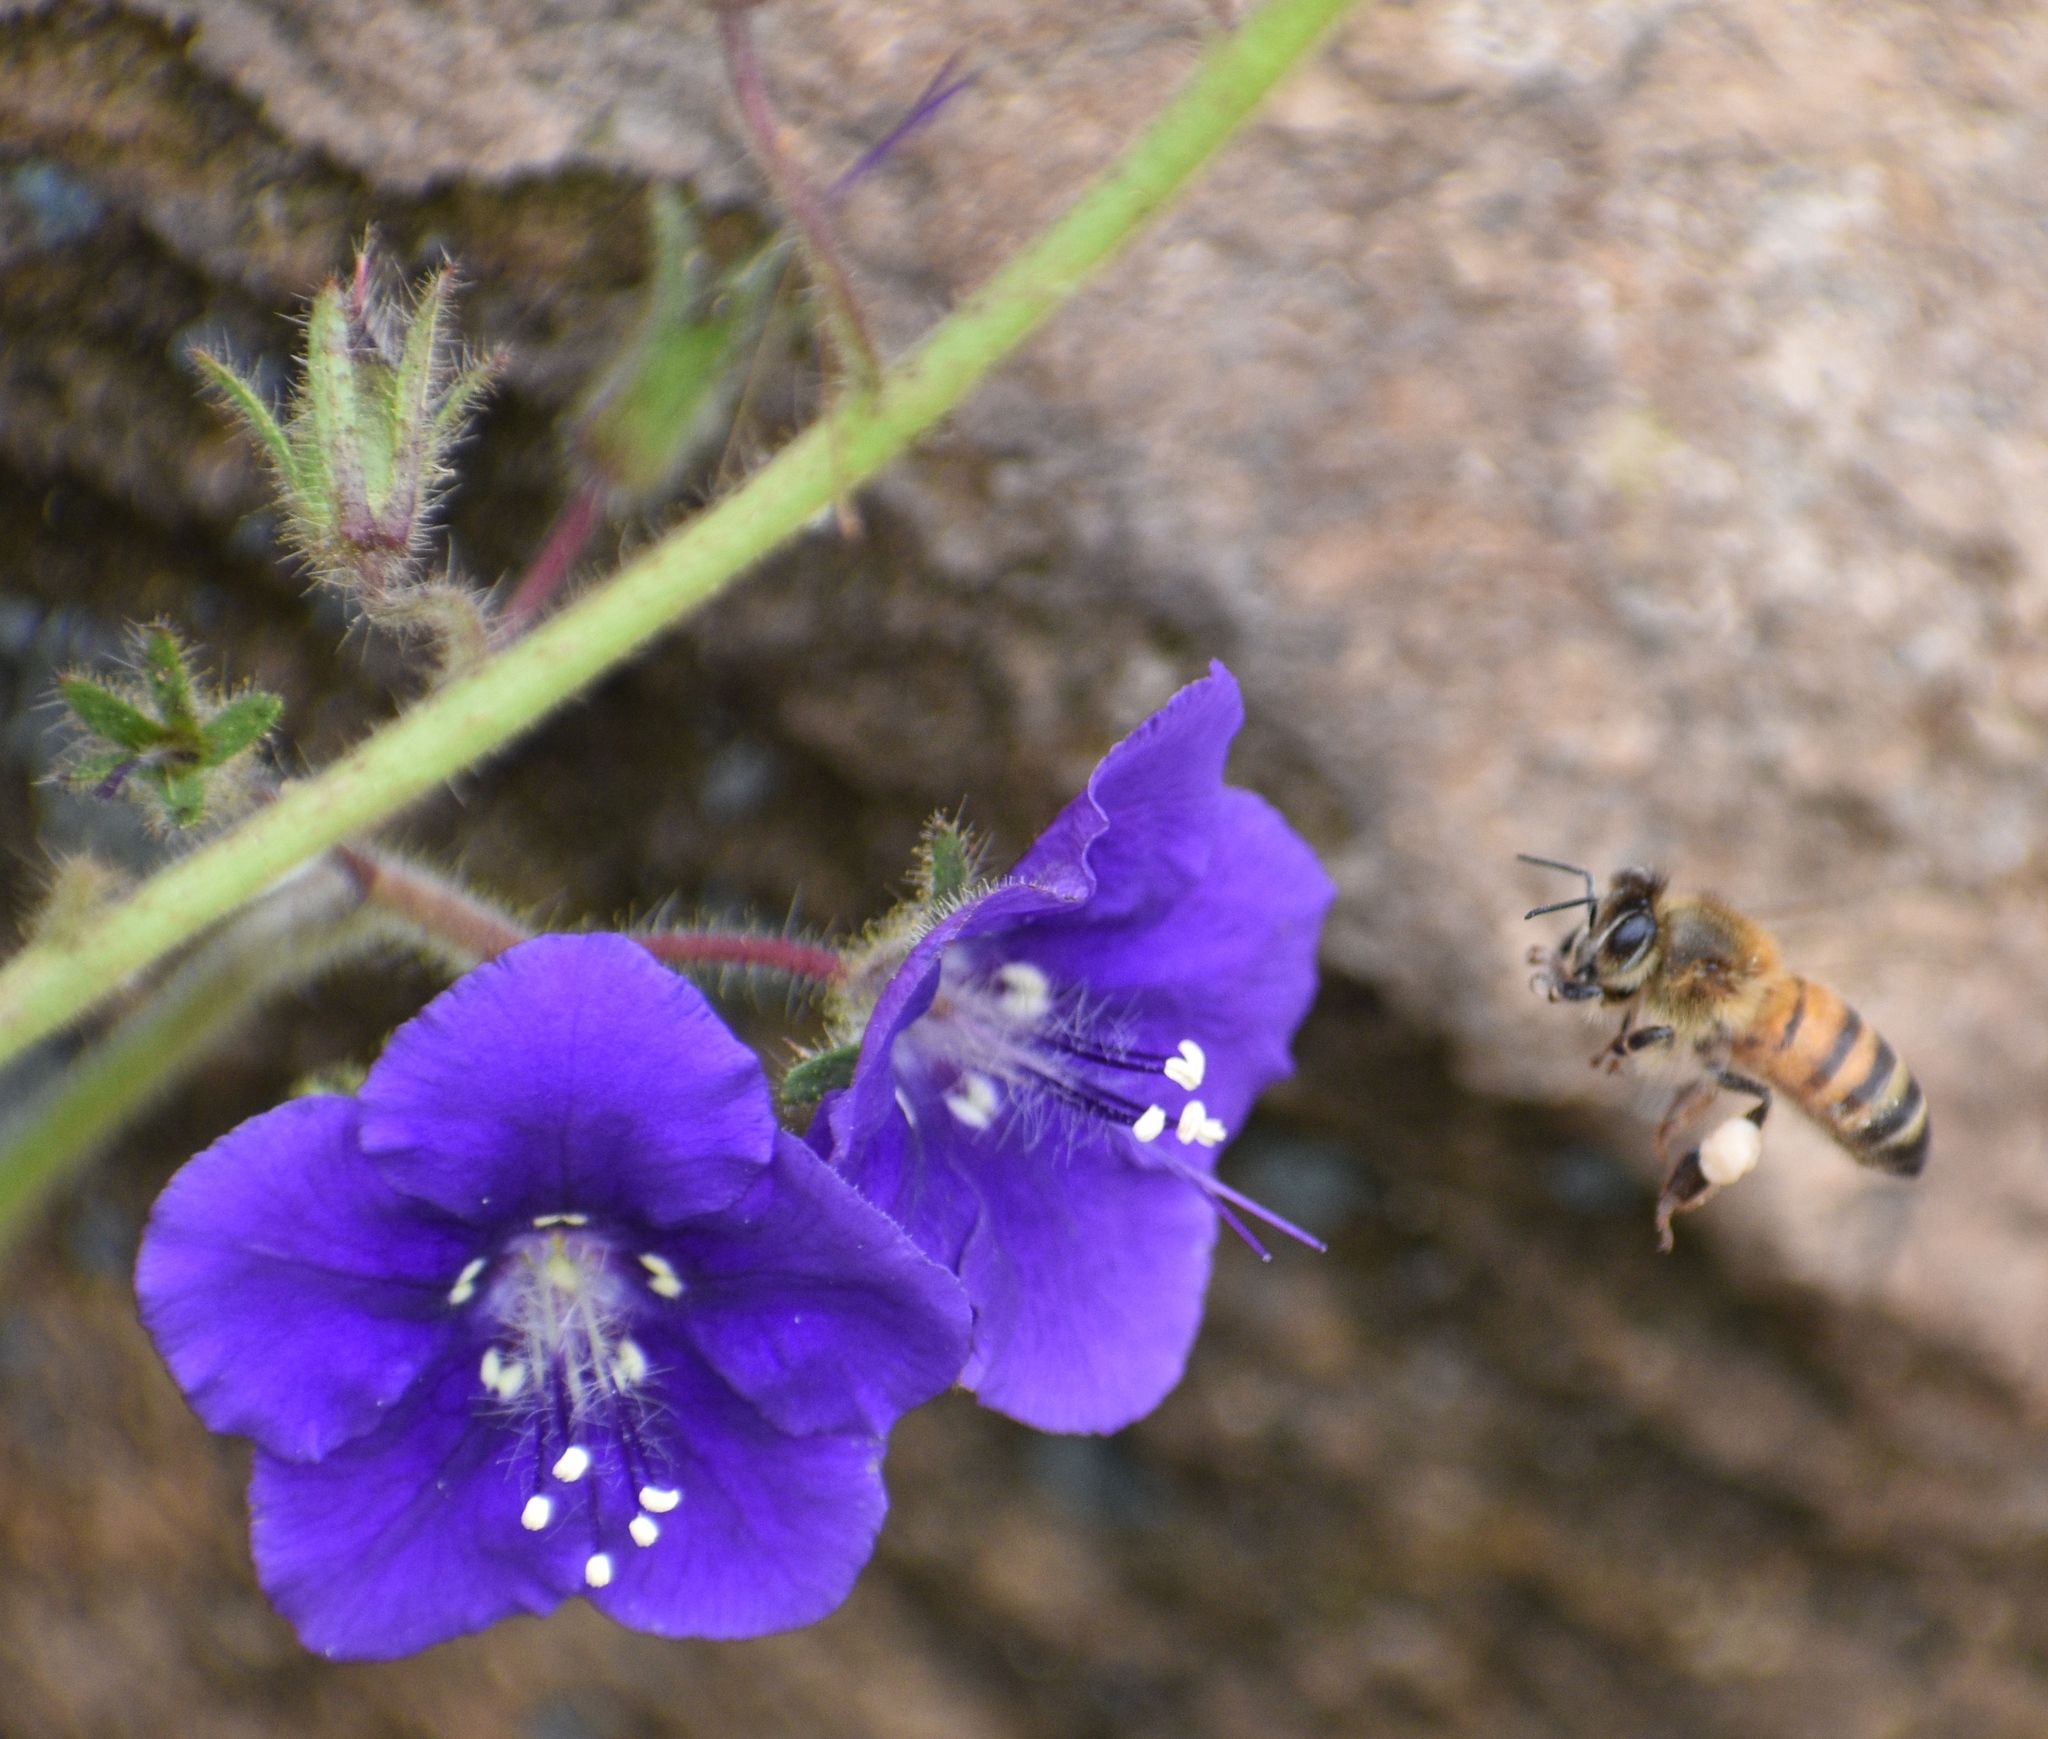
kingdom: Animalia
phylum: Arthropoda
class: Insecta
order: Hymenoptera
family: Apidae
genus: Apis
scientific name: Apis mellifera
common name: Honey bee
